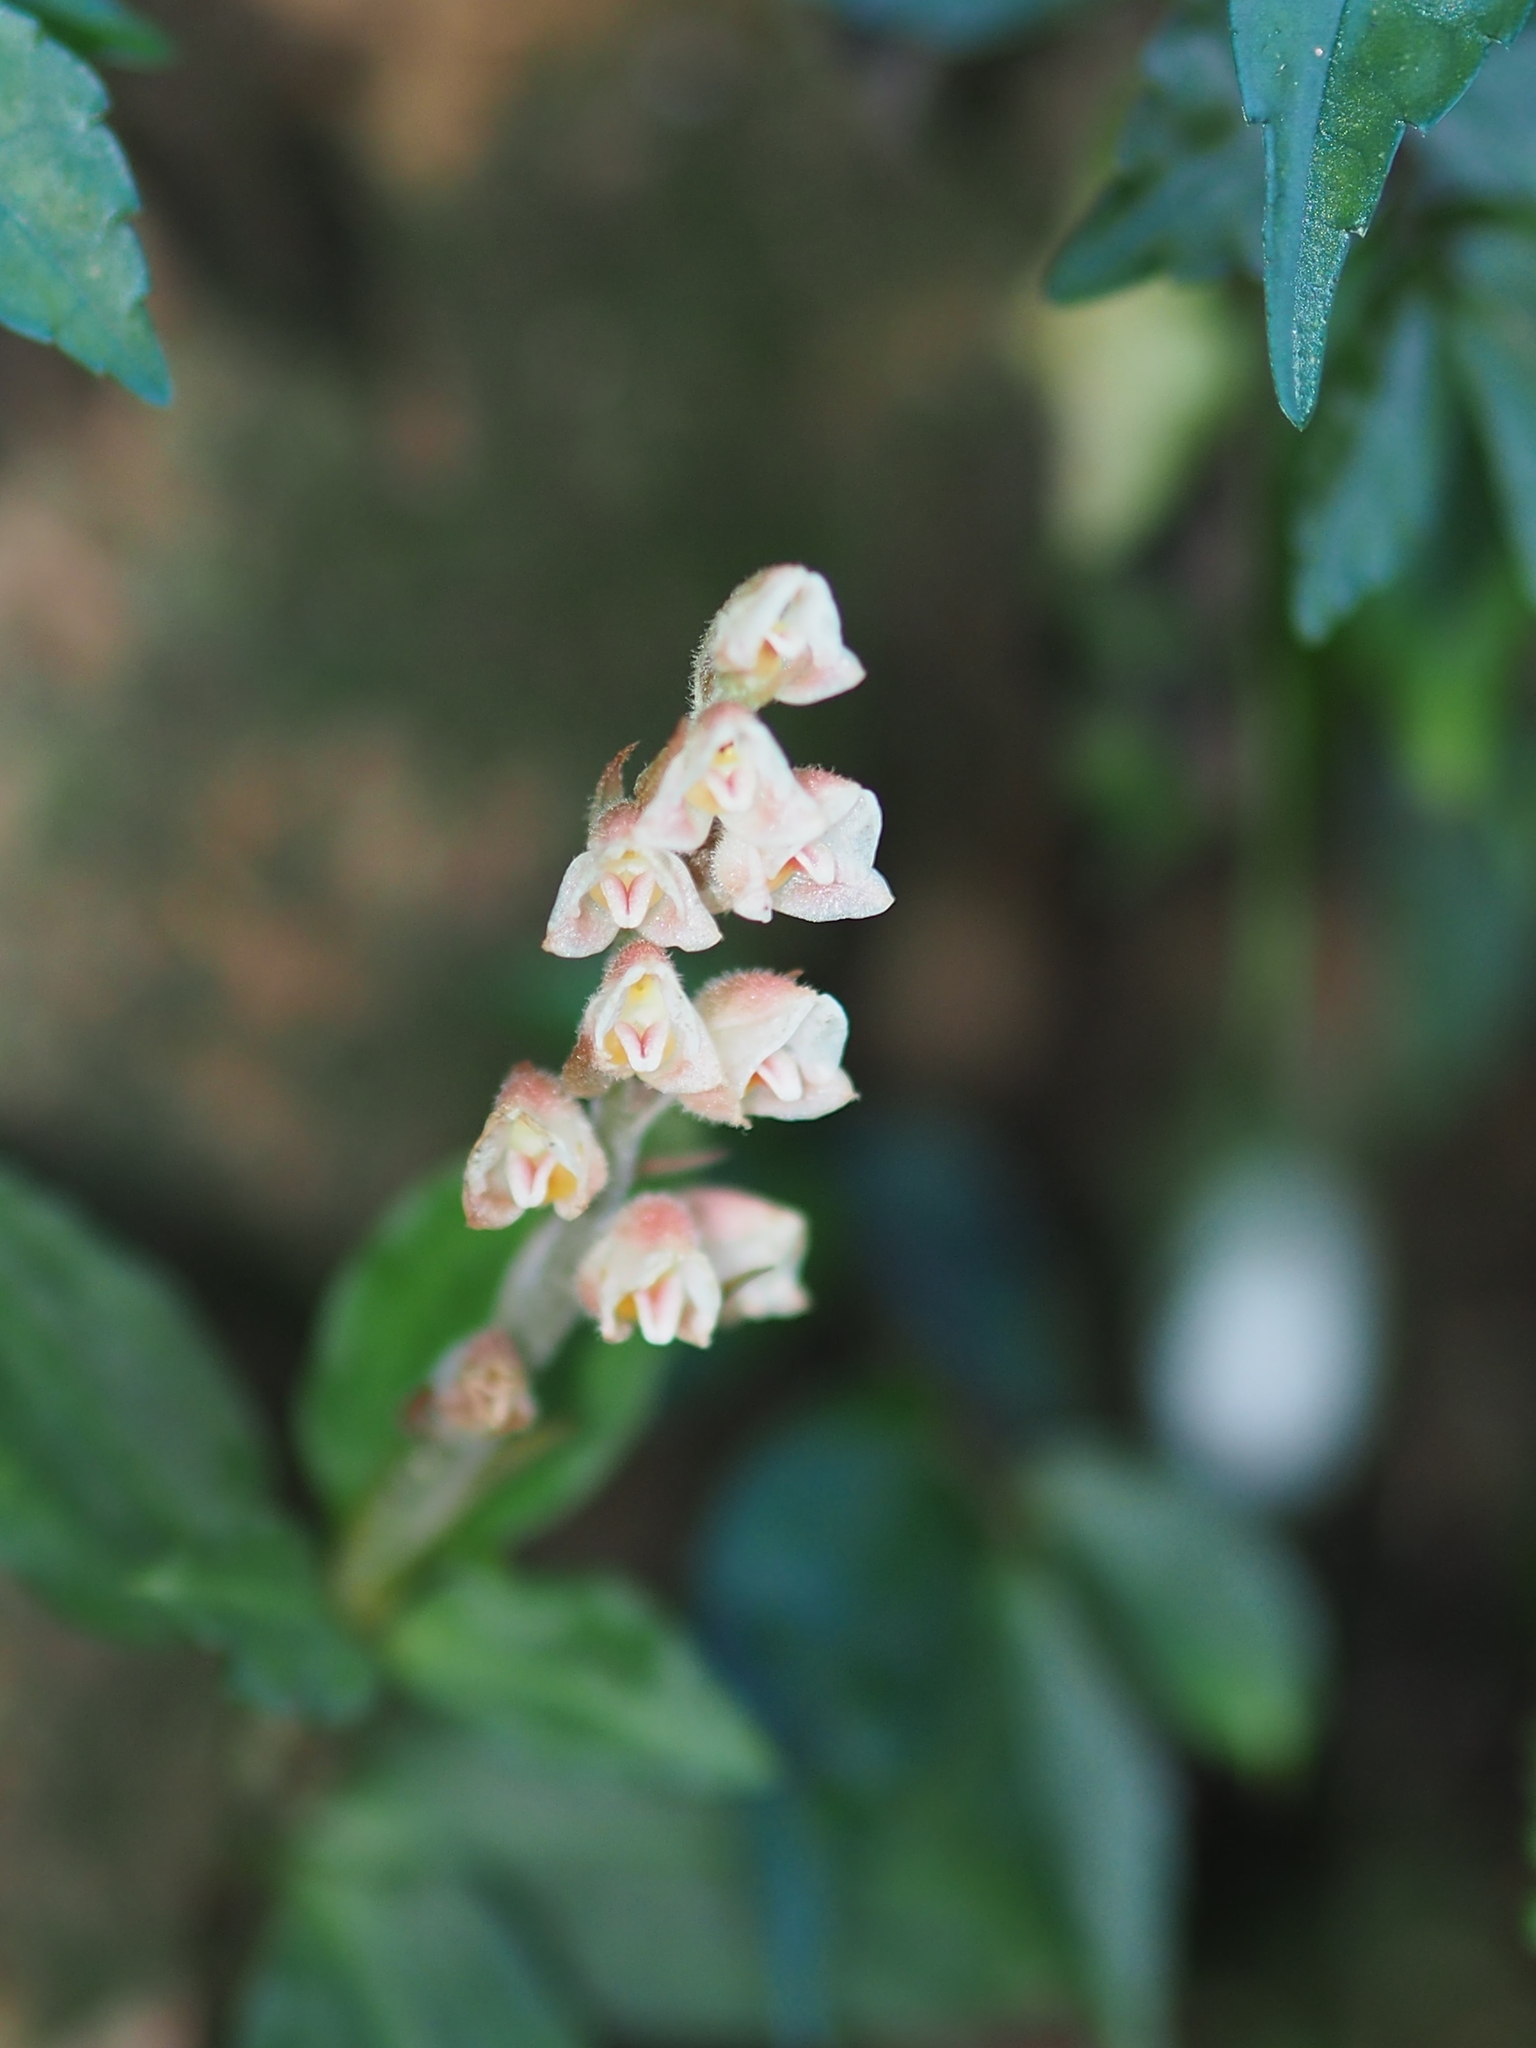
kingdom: Plantae
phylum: Tracheophyta
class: Liliopsida
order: Asparagales
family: Orchidaceae
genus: Goodyera
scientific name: Goodyera foliosa
